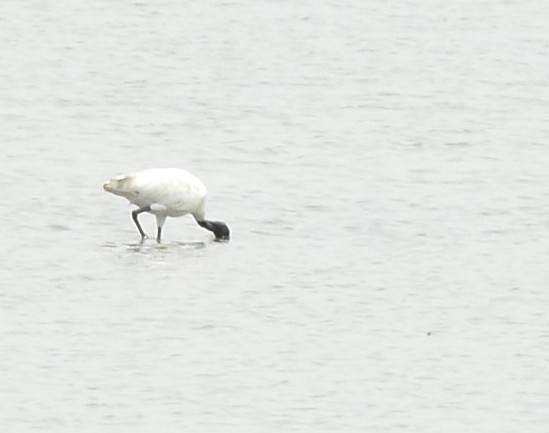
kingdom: Animalia
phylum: Chordata
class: Aves
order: Pelecaniformes
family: Threskiornithidae
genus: Threskiornis
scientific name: Threskiornis melanocephalus
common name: Black-headed ibis
